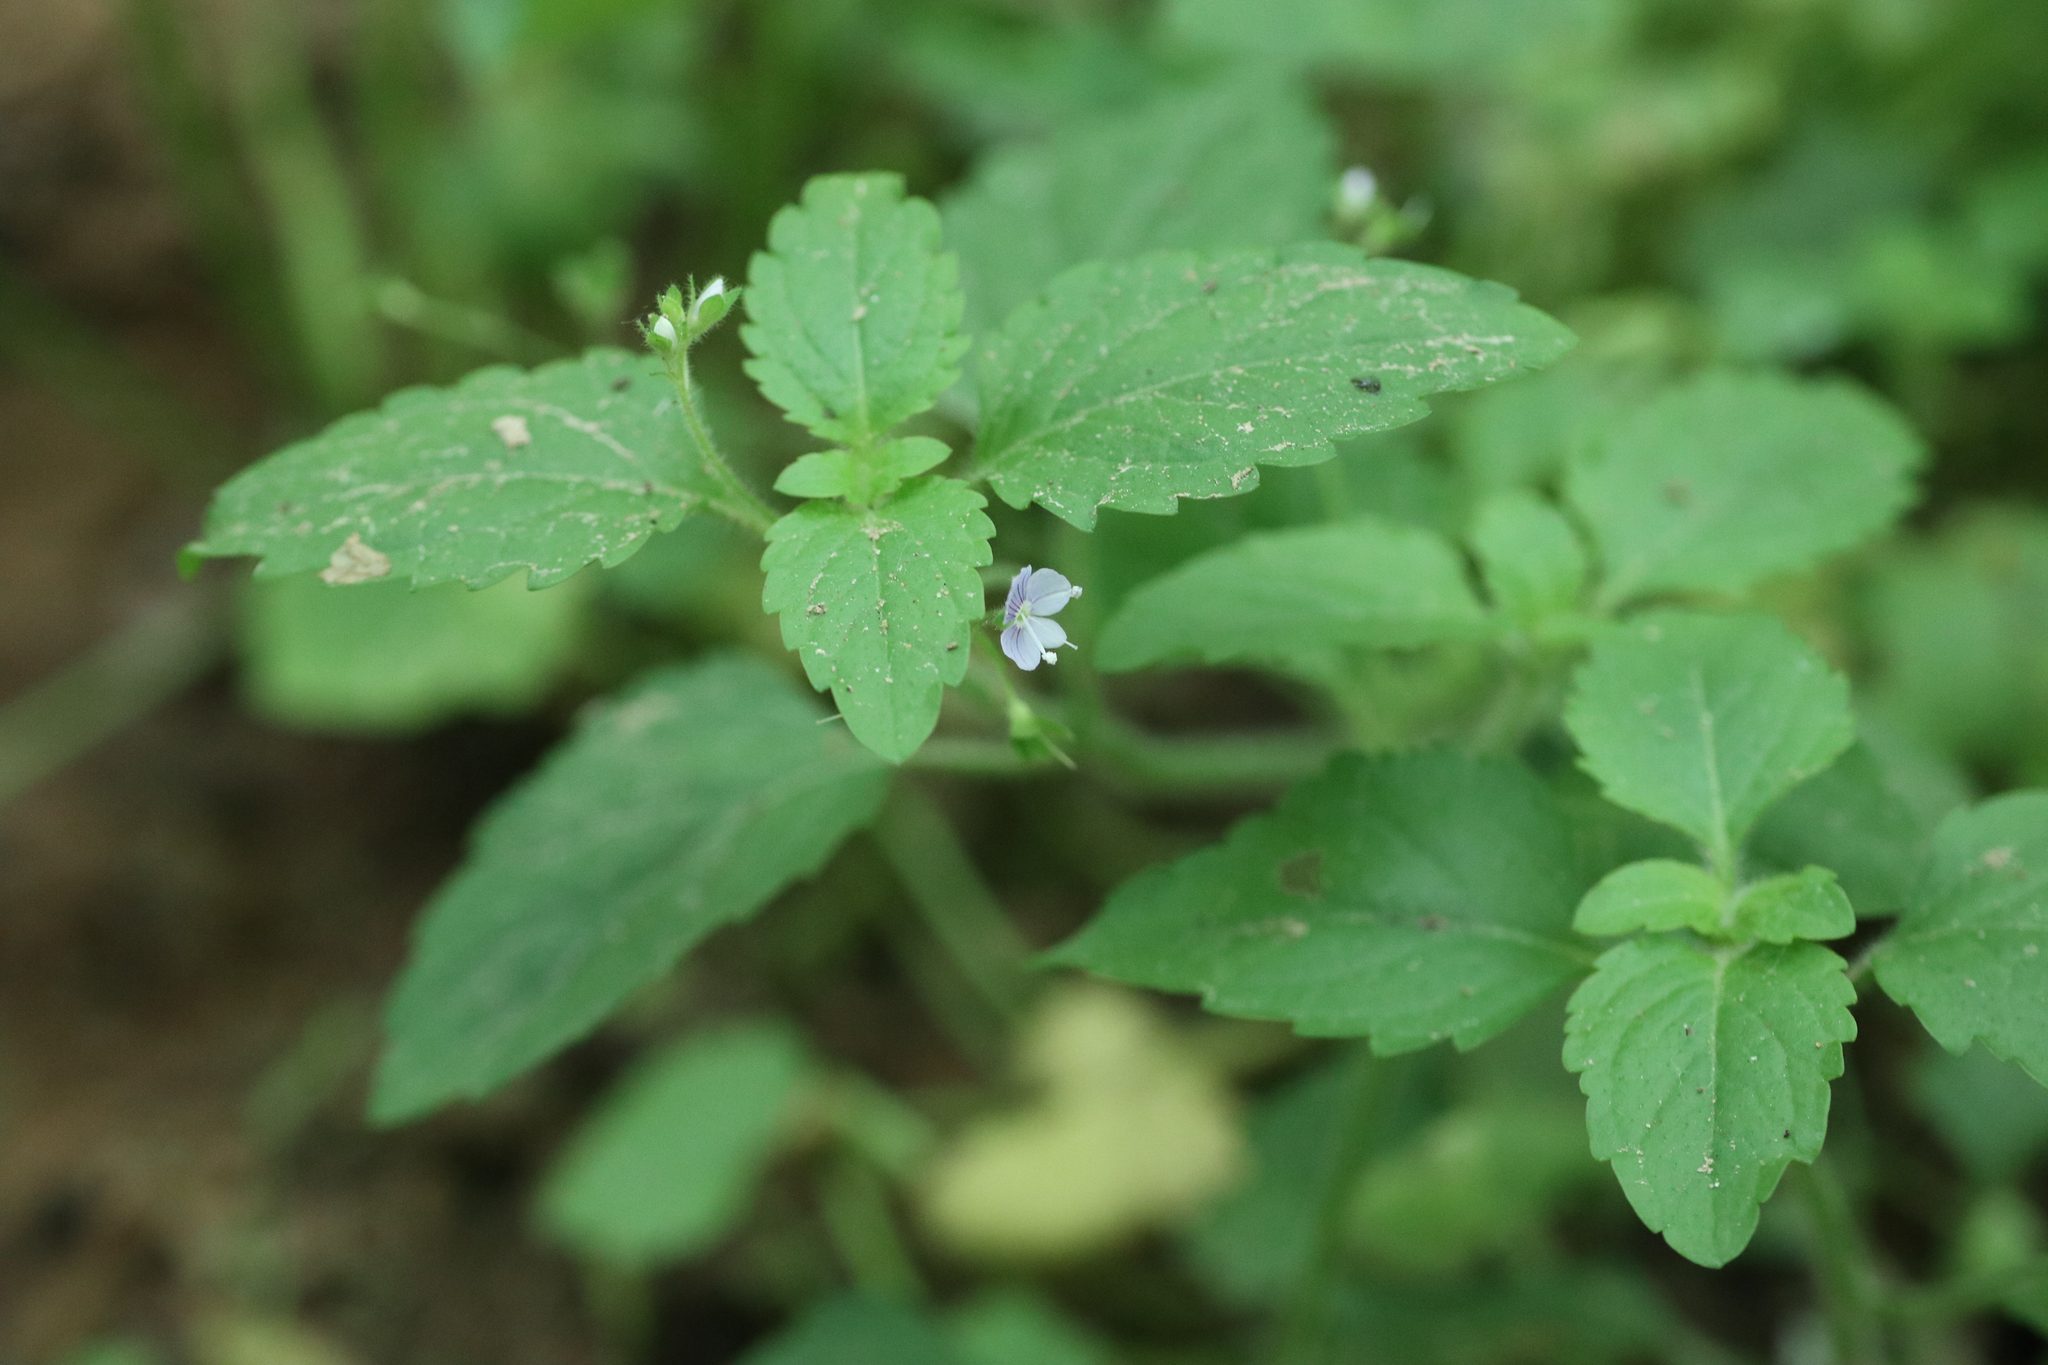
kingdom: Plantae
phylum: Tracheophyta
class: Magnoliopsida
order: Lamiales
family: Plantaginaceae
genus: Veronica
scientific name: Veronica montana
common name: Wood speedwell
